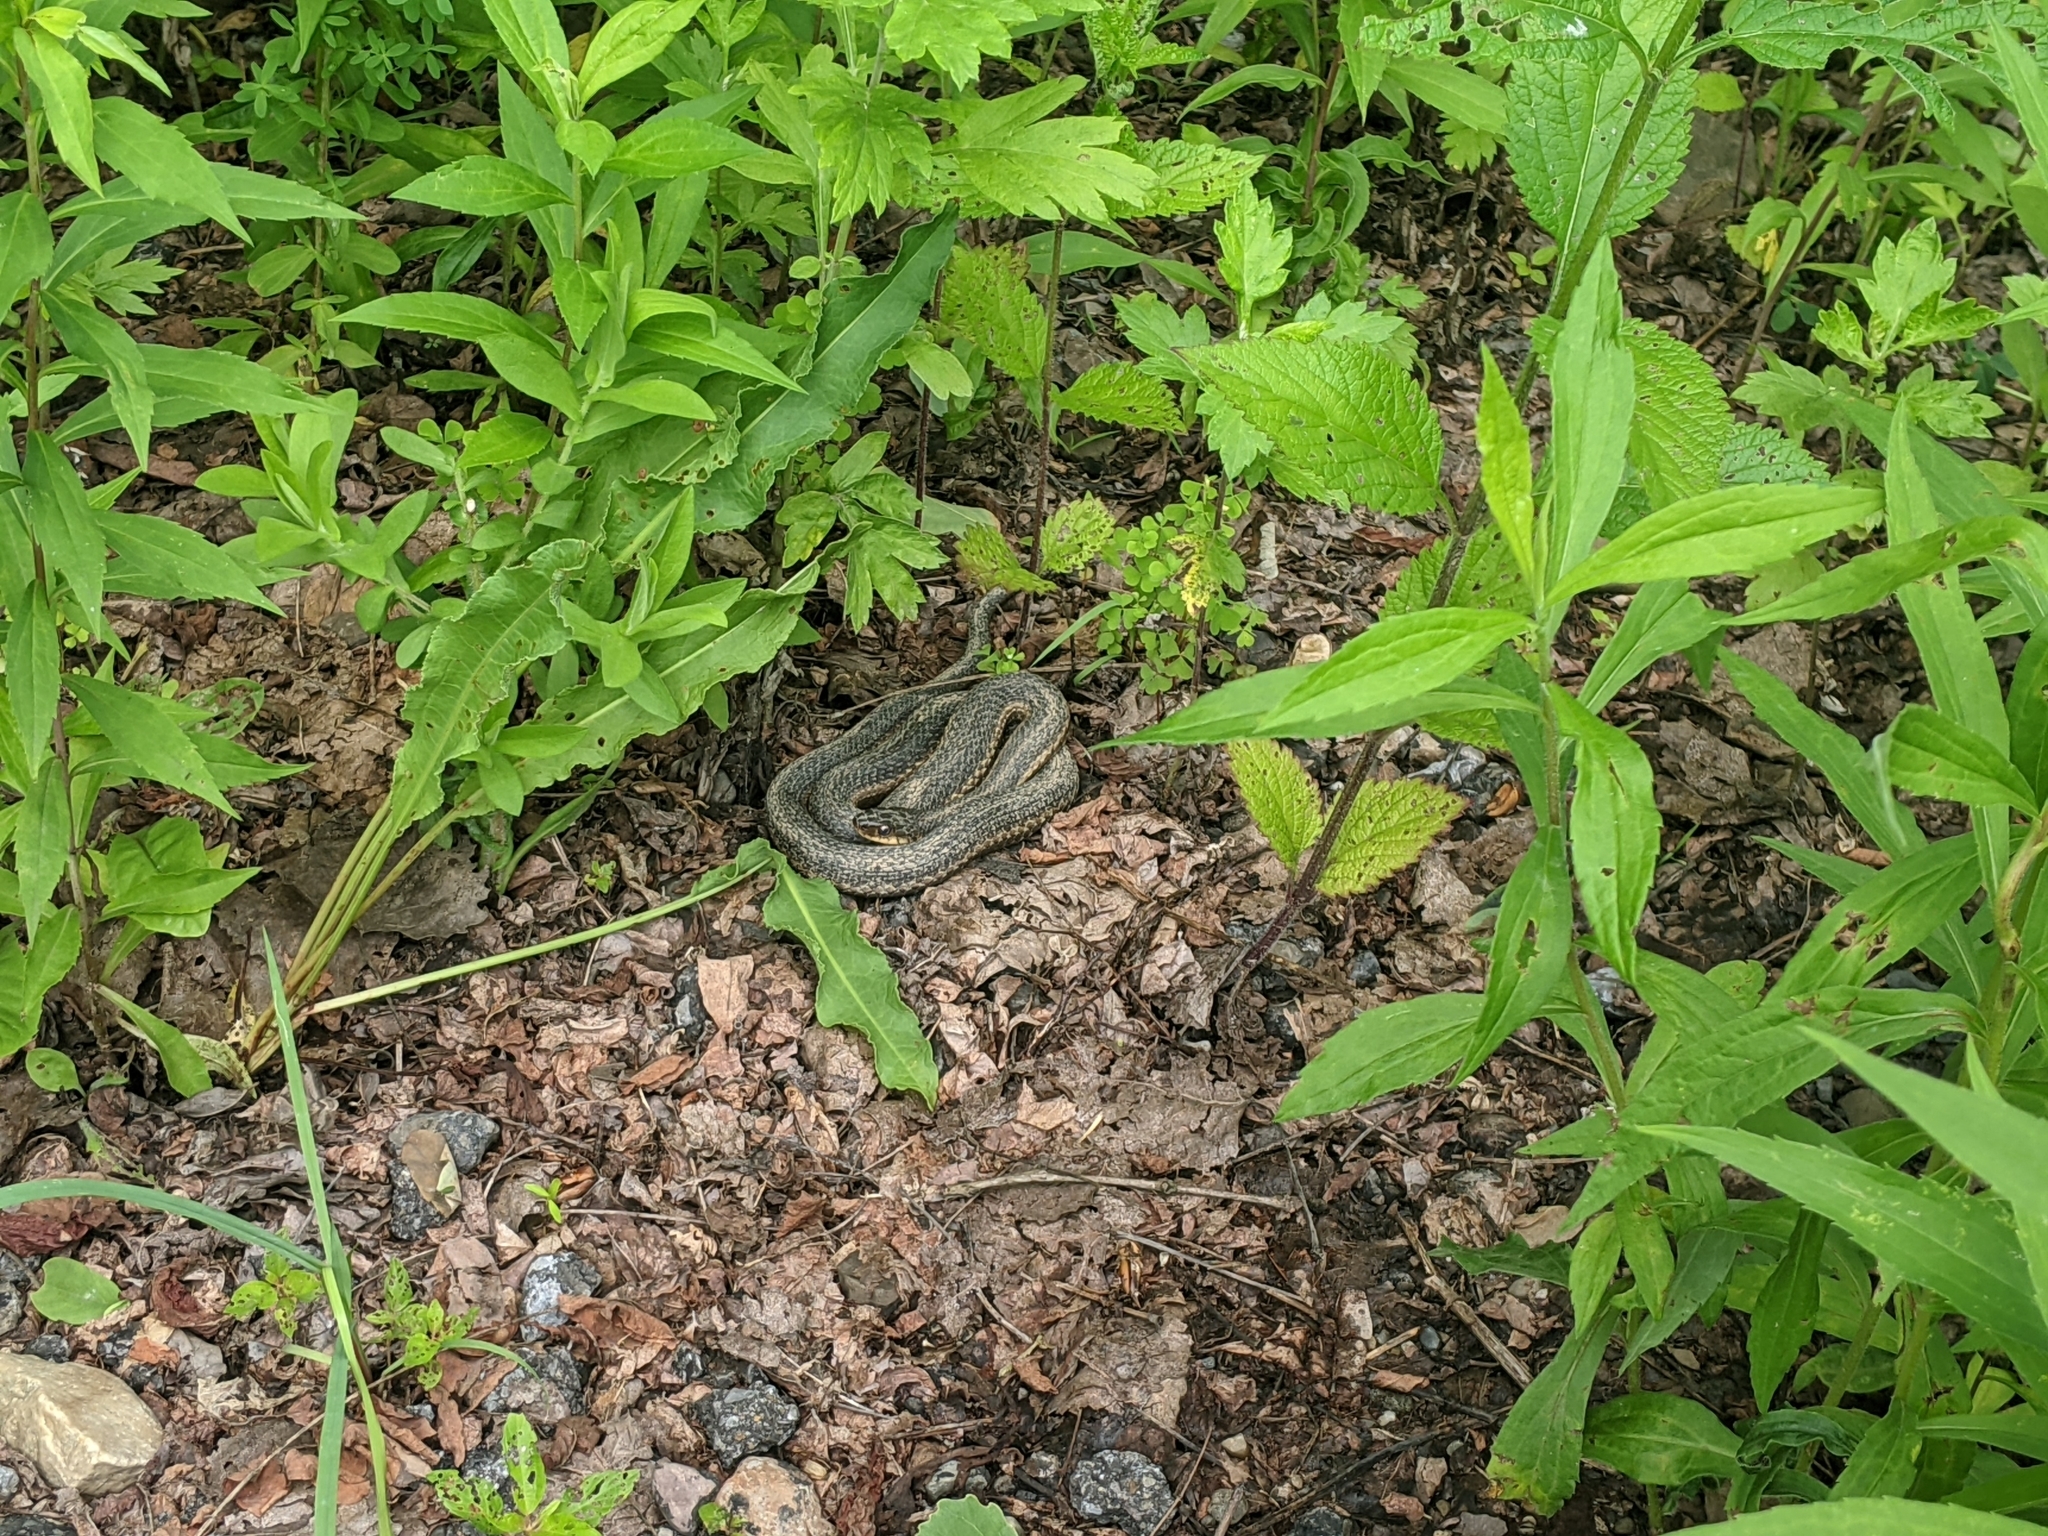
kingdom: Animalia
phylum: Chordata
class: Squamata
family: Colubridae
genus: Thamnophis
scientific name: Thamnophis sirtalis
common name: Common garter snake
